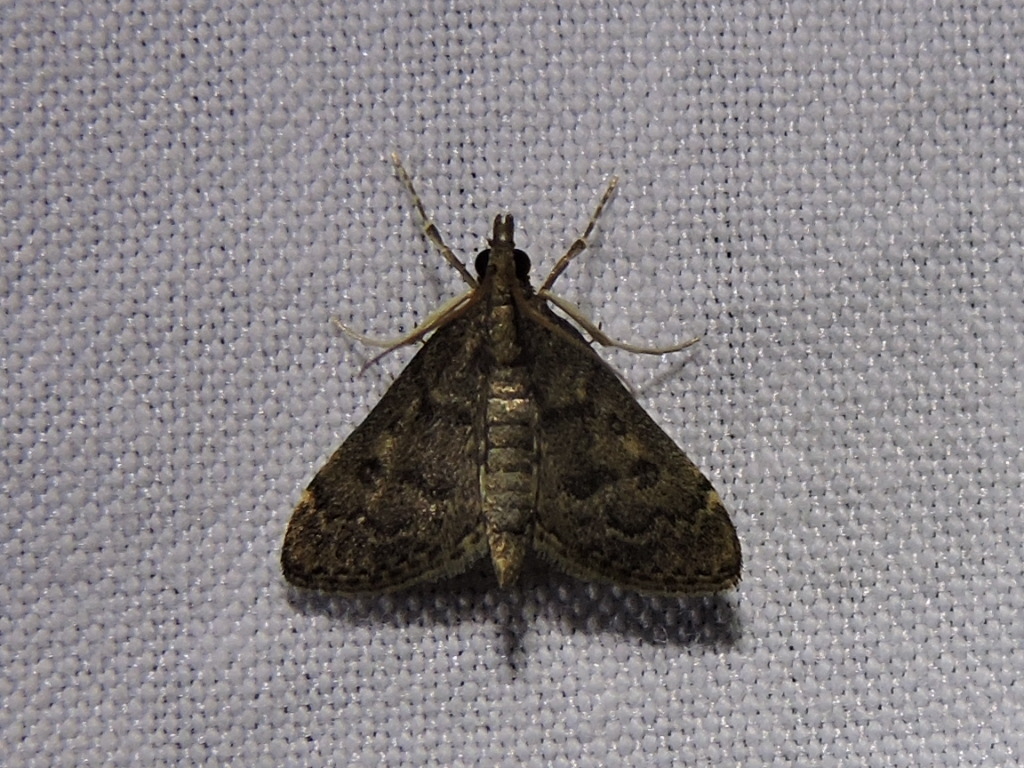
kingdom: Animalia
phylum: Arthropoda
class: Insecta
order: Lepidoptera
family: Crambidae
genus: Steniodes
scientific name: Steniodes mendica
